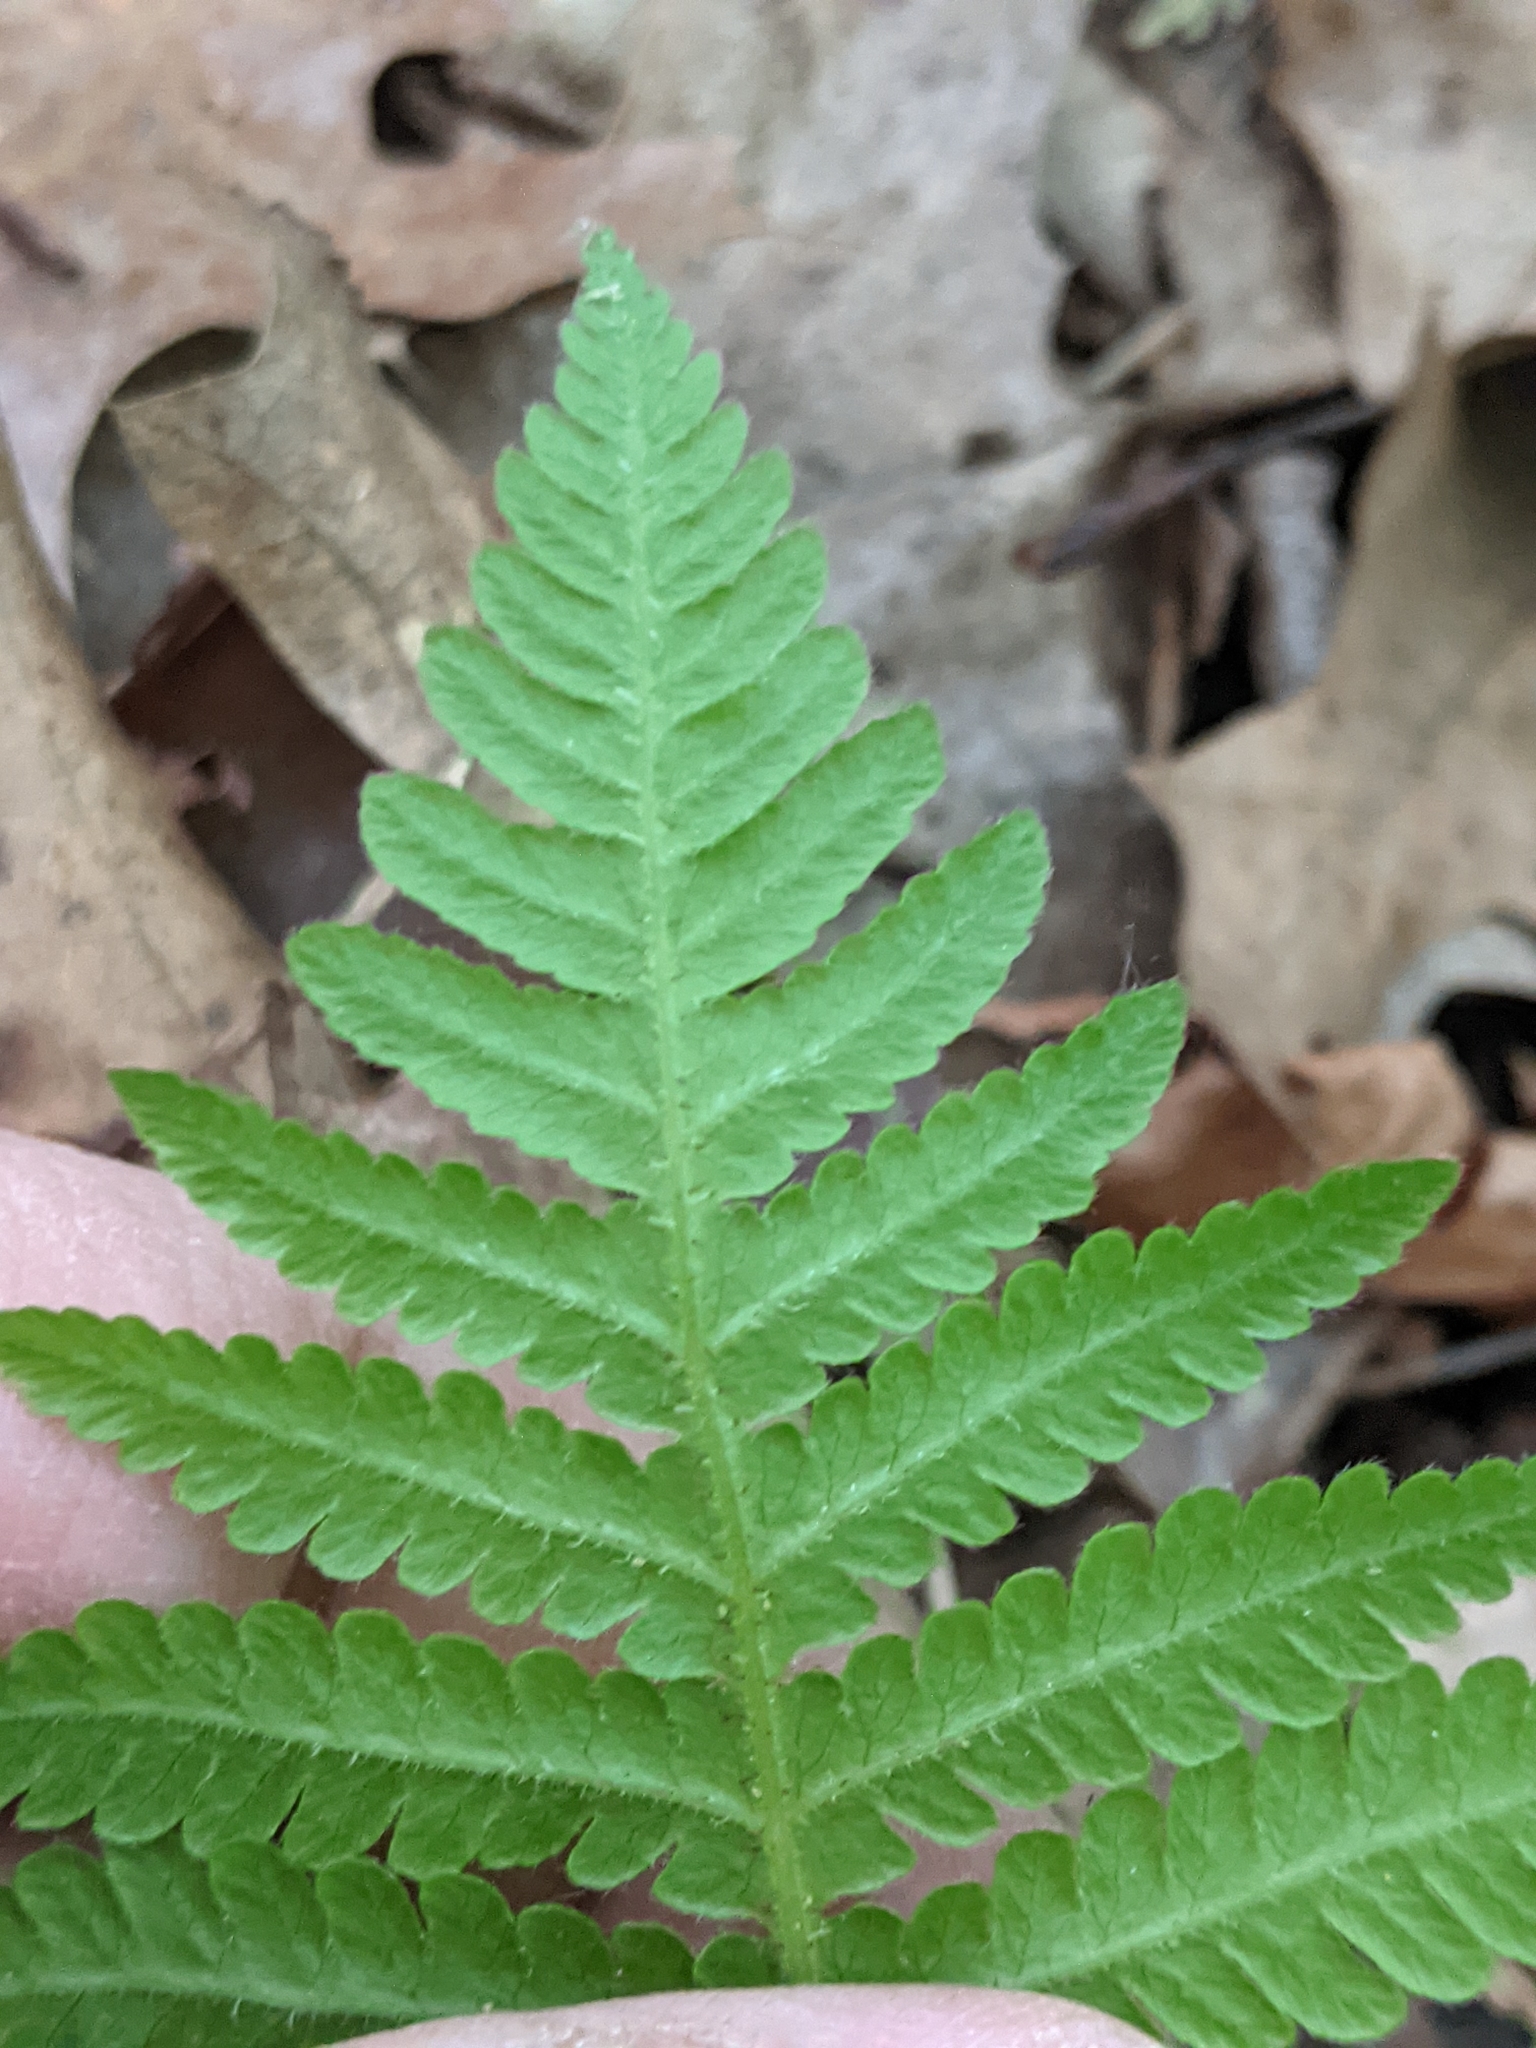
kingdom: Plantae
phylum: Tracheophyta
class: Polypodiopsida
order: Polypodiales
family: Thelypteridaceae
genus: Phegopteris
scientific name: Phegopteris connectilis
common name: Beech fern
